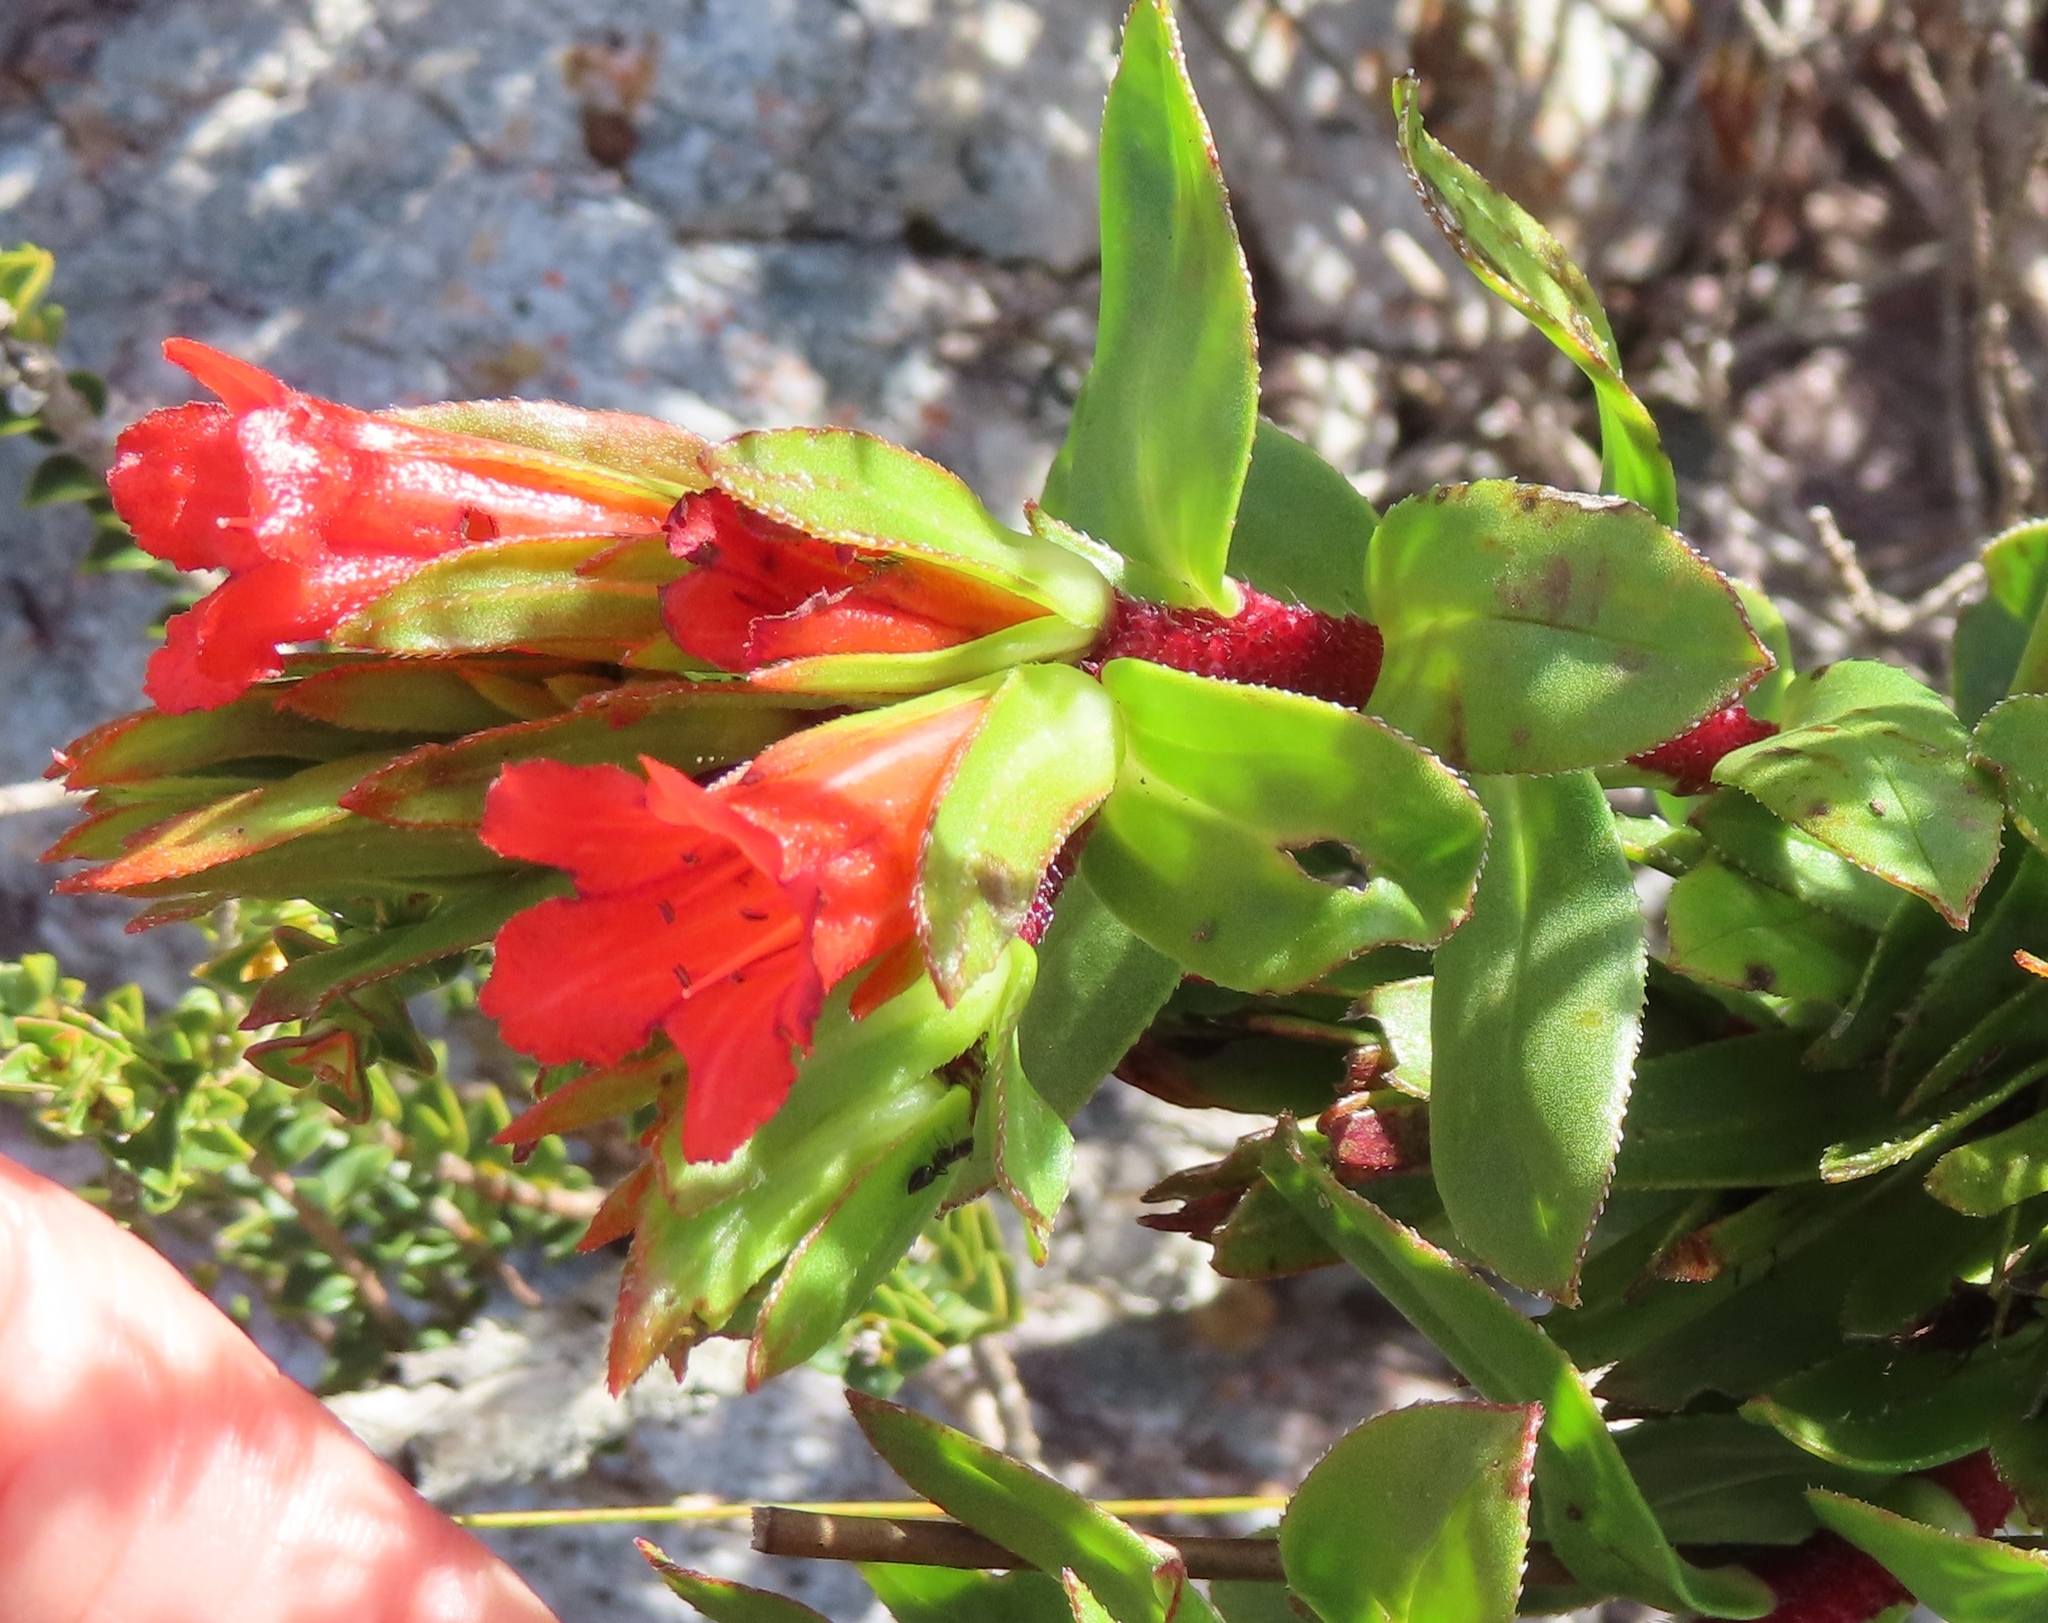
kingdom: Plantae
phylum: Tracheophyta
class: Magnoliopsida
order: Boraginales
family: Boraginaceae
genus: Lobostemon
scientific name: Lobostemon sanguineus
